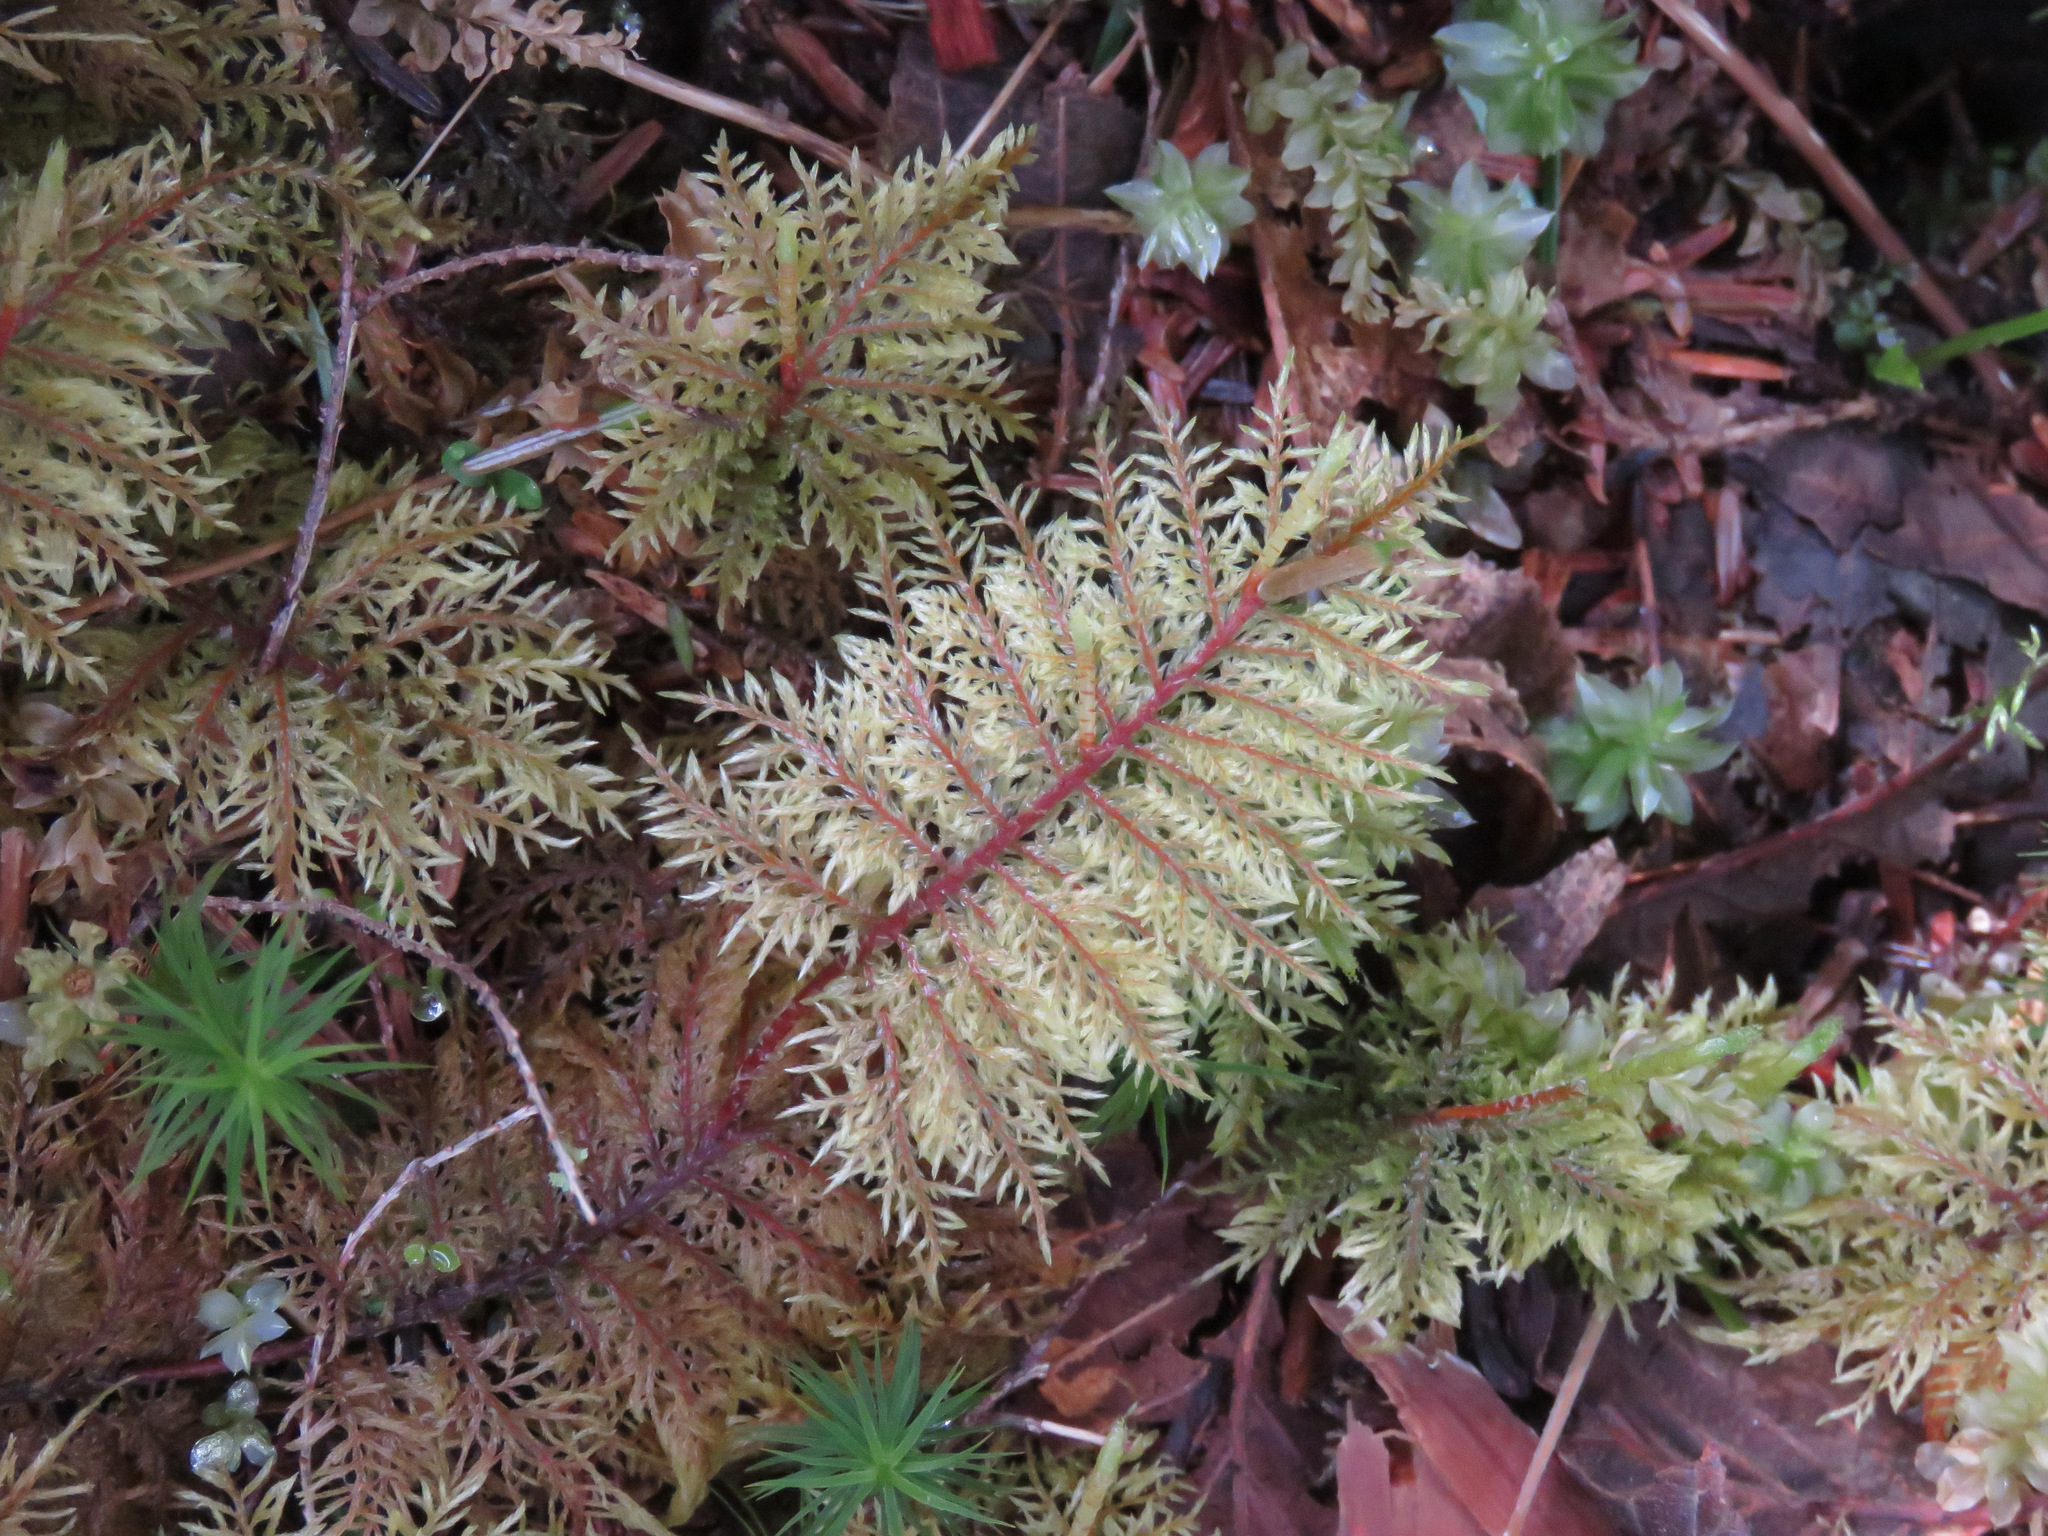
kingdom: Plantae
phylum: Bryophyta
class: Bryopsida
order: Hypnales
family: Hylocomiaceae
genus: Hylocomium
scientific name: Hylocomium splendens
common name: Stairstep moss
